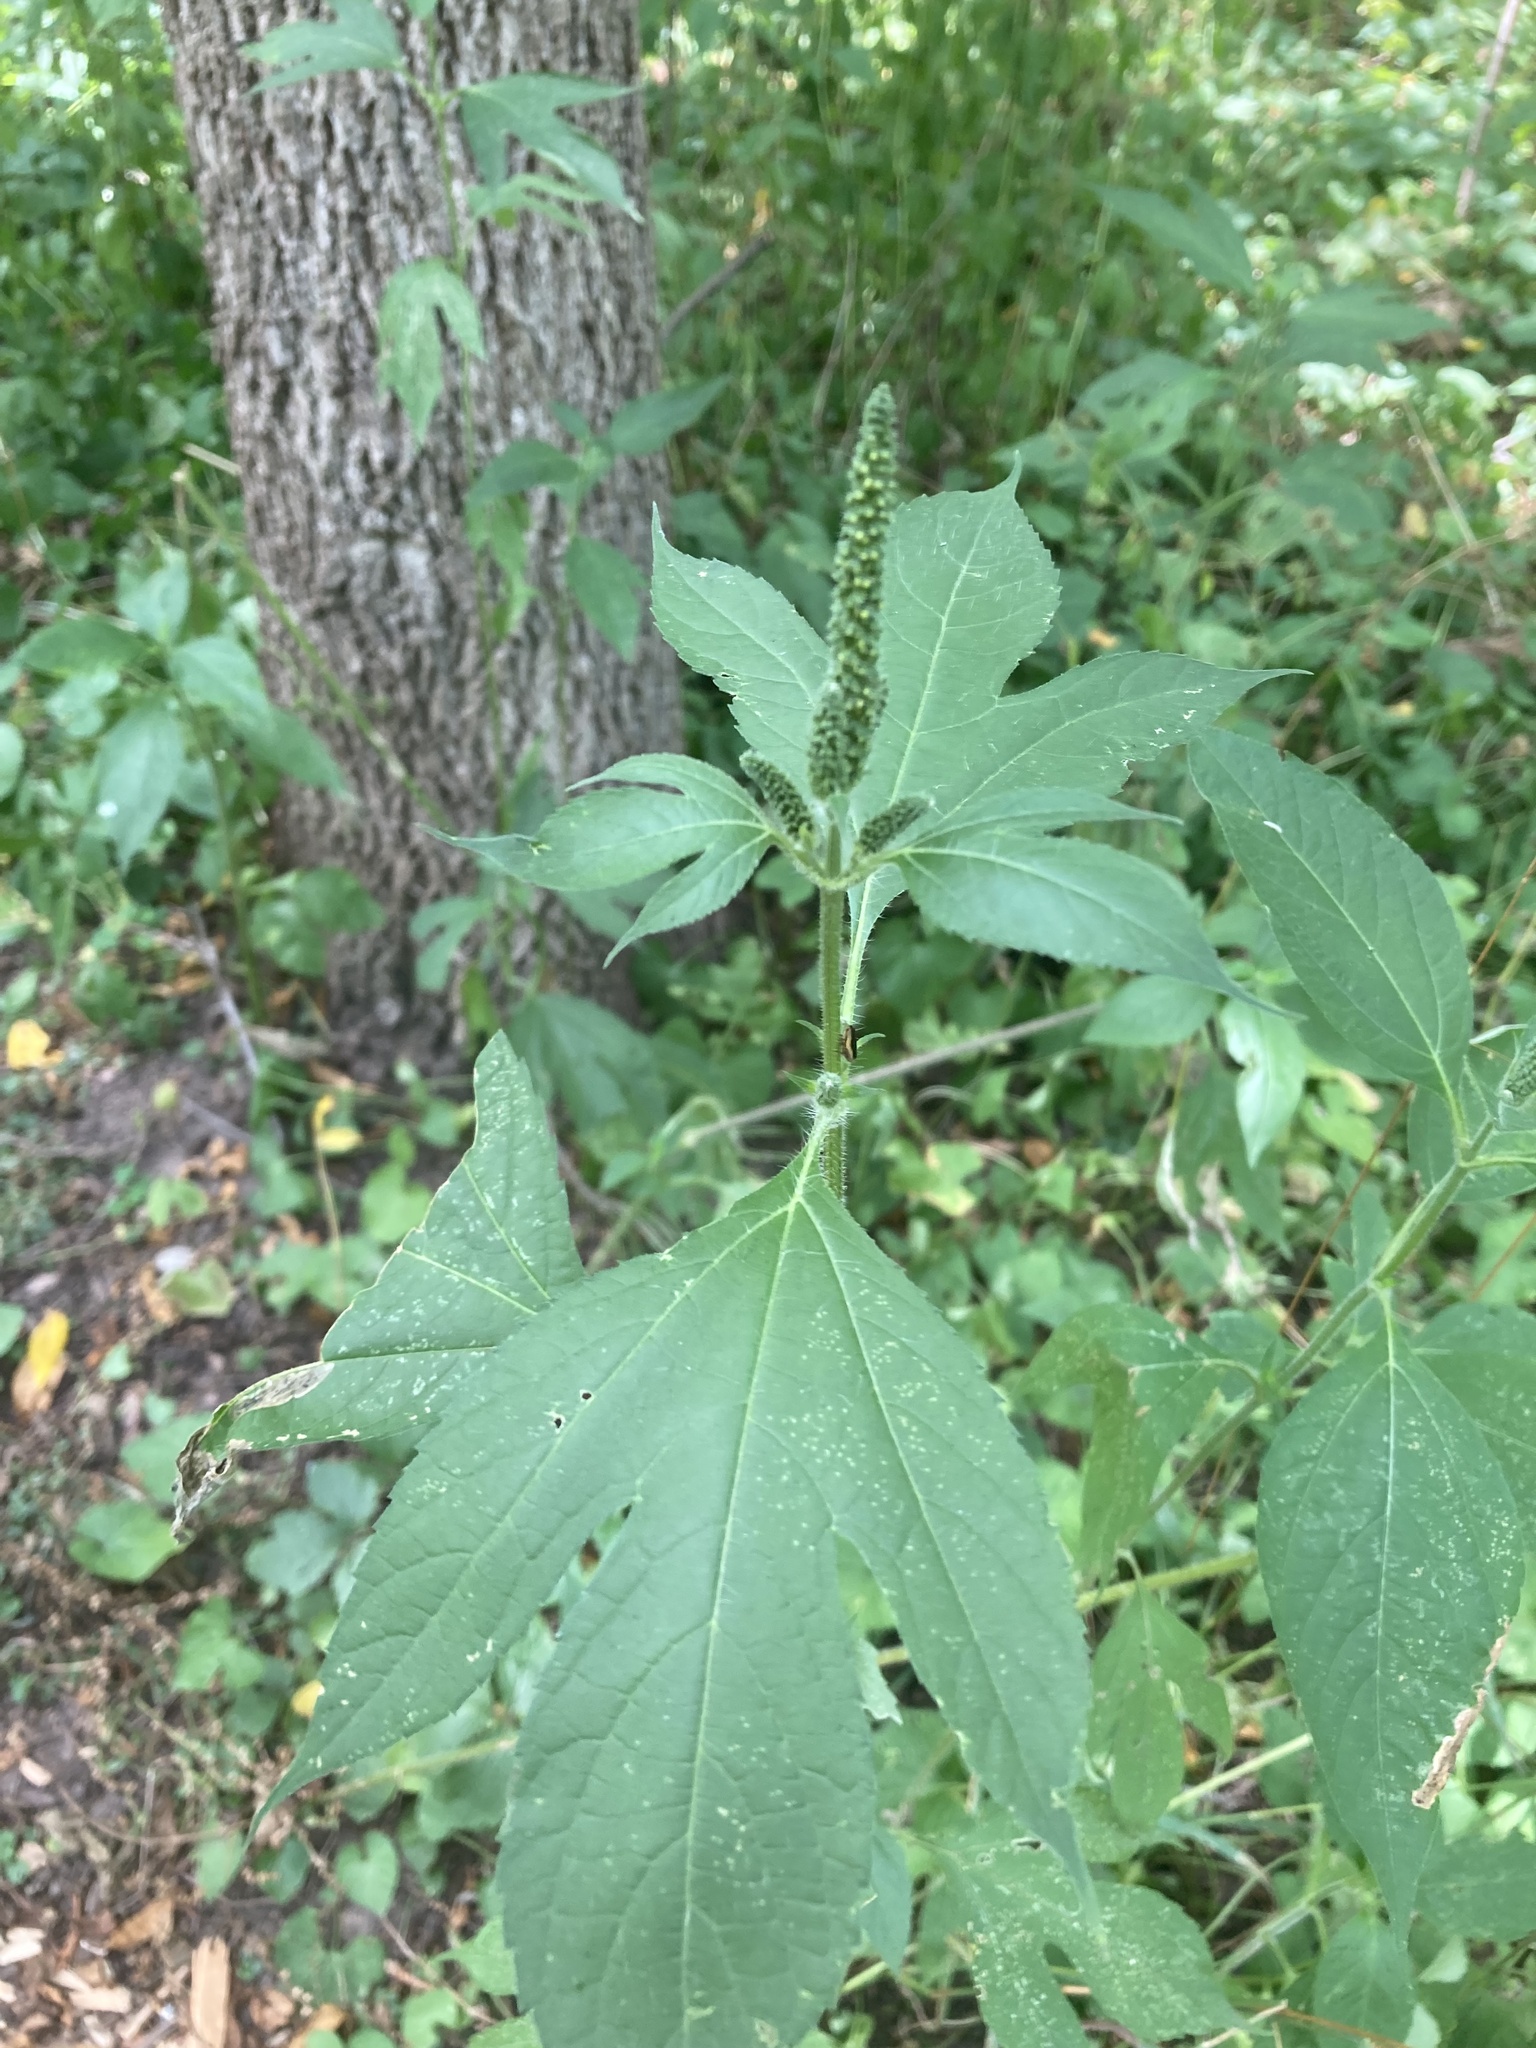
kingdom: Plantae
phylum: Tracheophyta
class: Magnoliopsida
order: Asterales
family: Asteraceae
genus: Ambrosia
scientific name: Ambrosia trifida
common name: Giant ragweed
